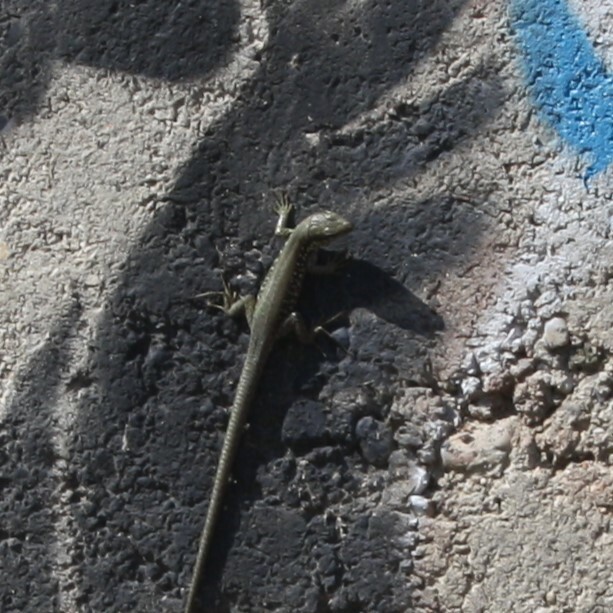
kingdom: Animalia
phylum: Chordata
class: Squamata
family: Lacertidae
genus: Phoenicolacerta
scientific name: Phoenicolacerta laevis
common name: Lebanon lizard
